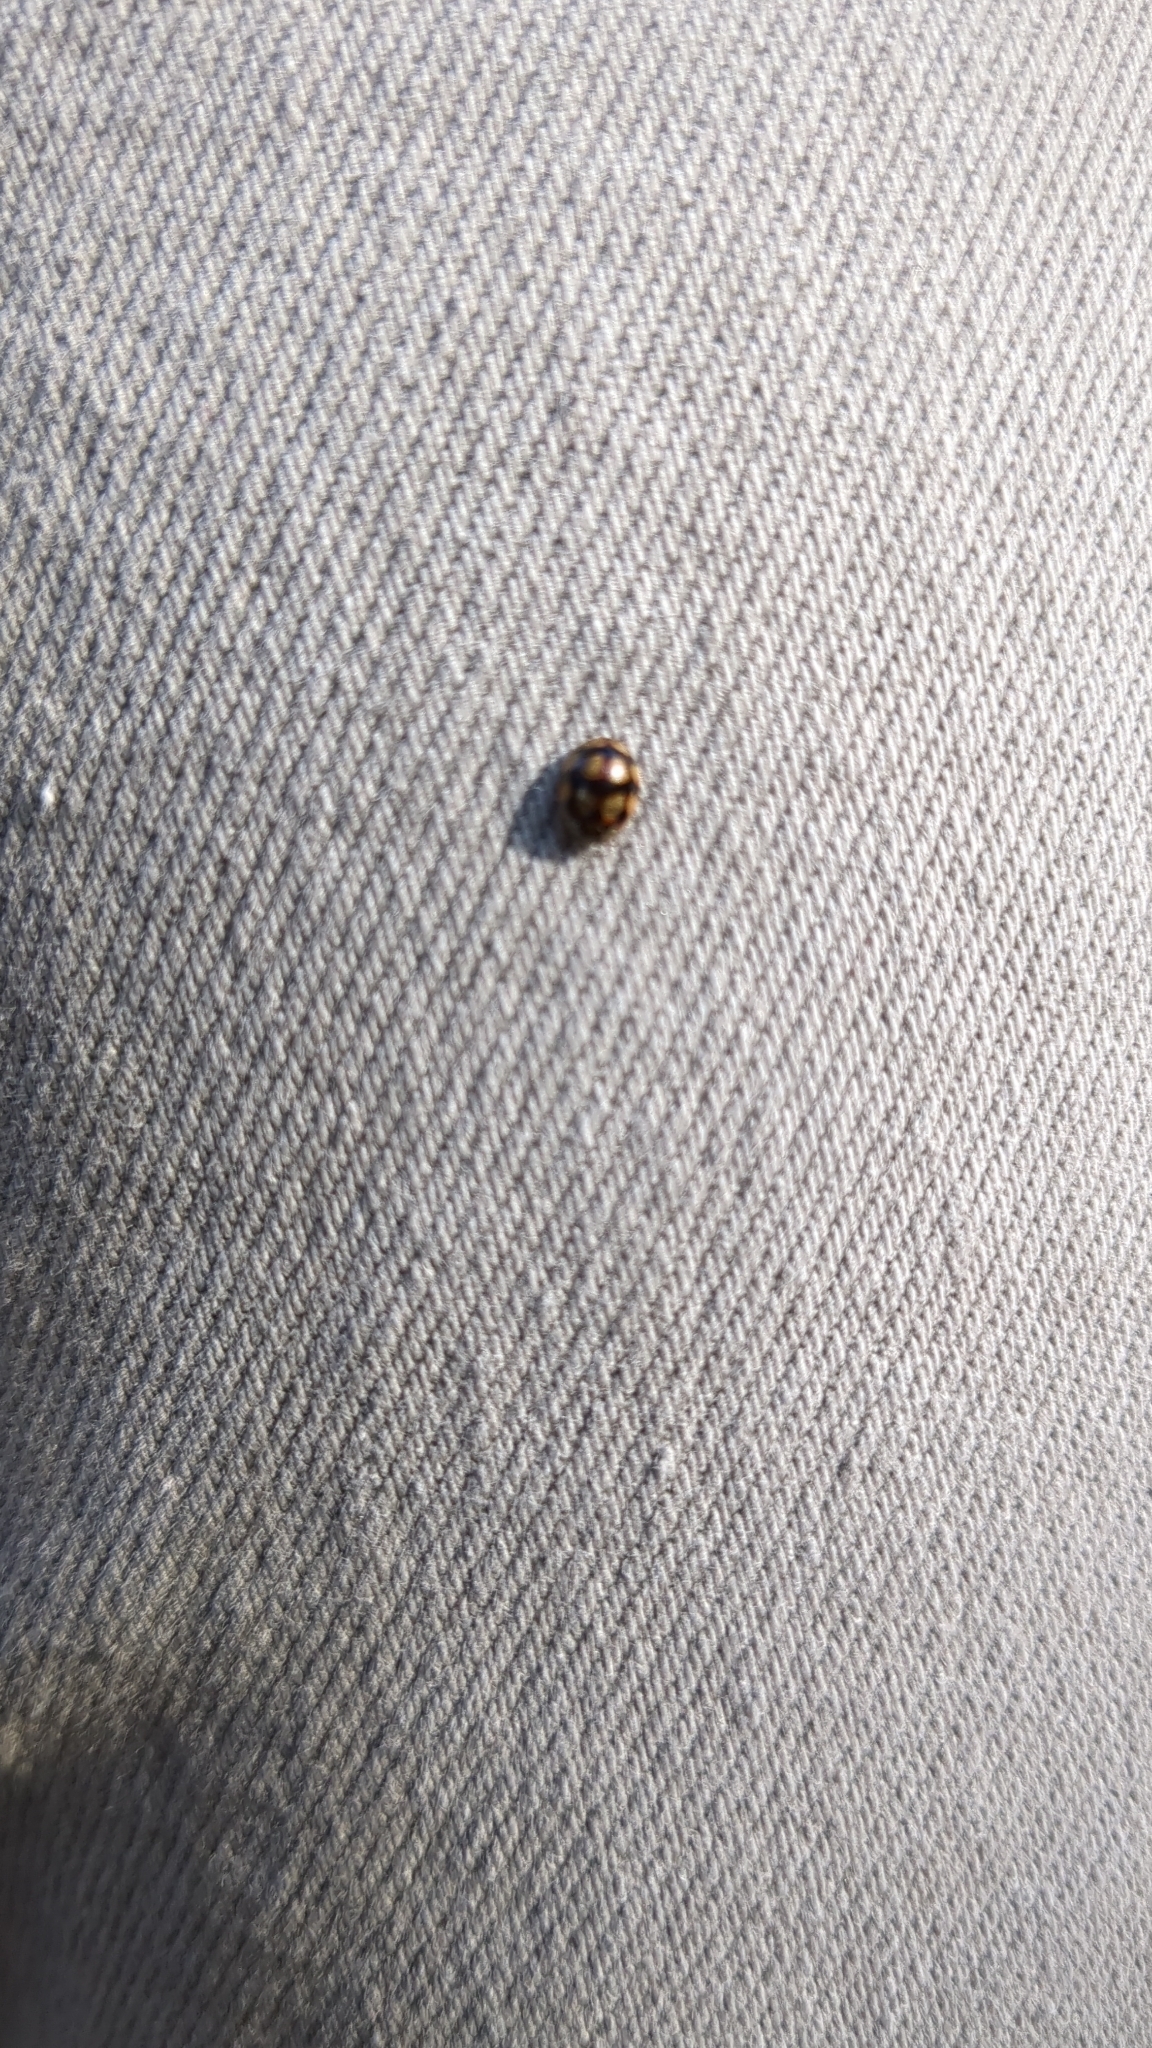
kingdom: Animalia
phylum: Arthropoda
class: Insecta
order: Coleoptera
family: Coccinellidae
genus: Adalia
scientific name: Adalia decempunctata
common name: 10-spot ladybird
